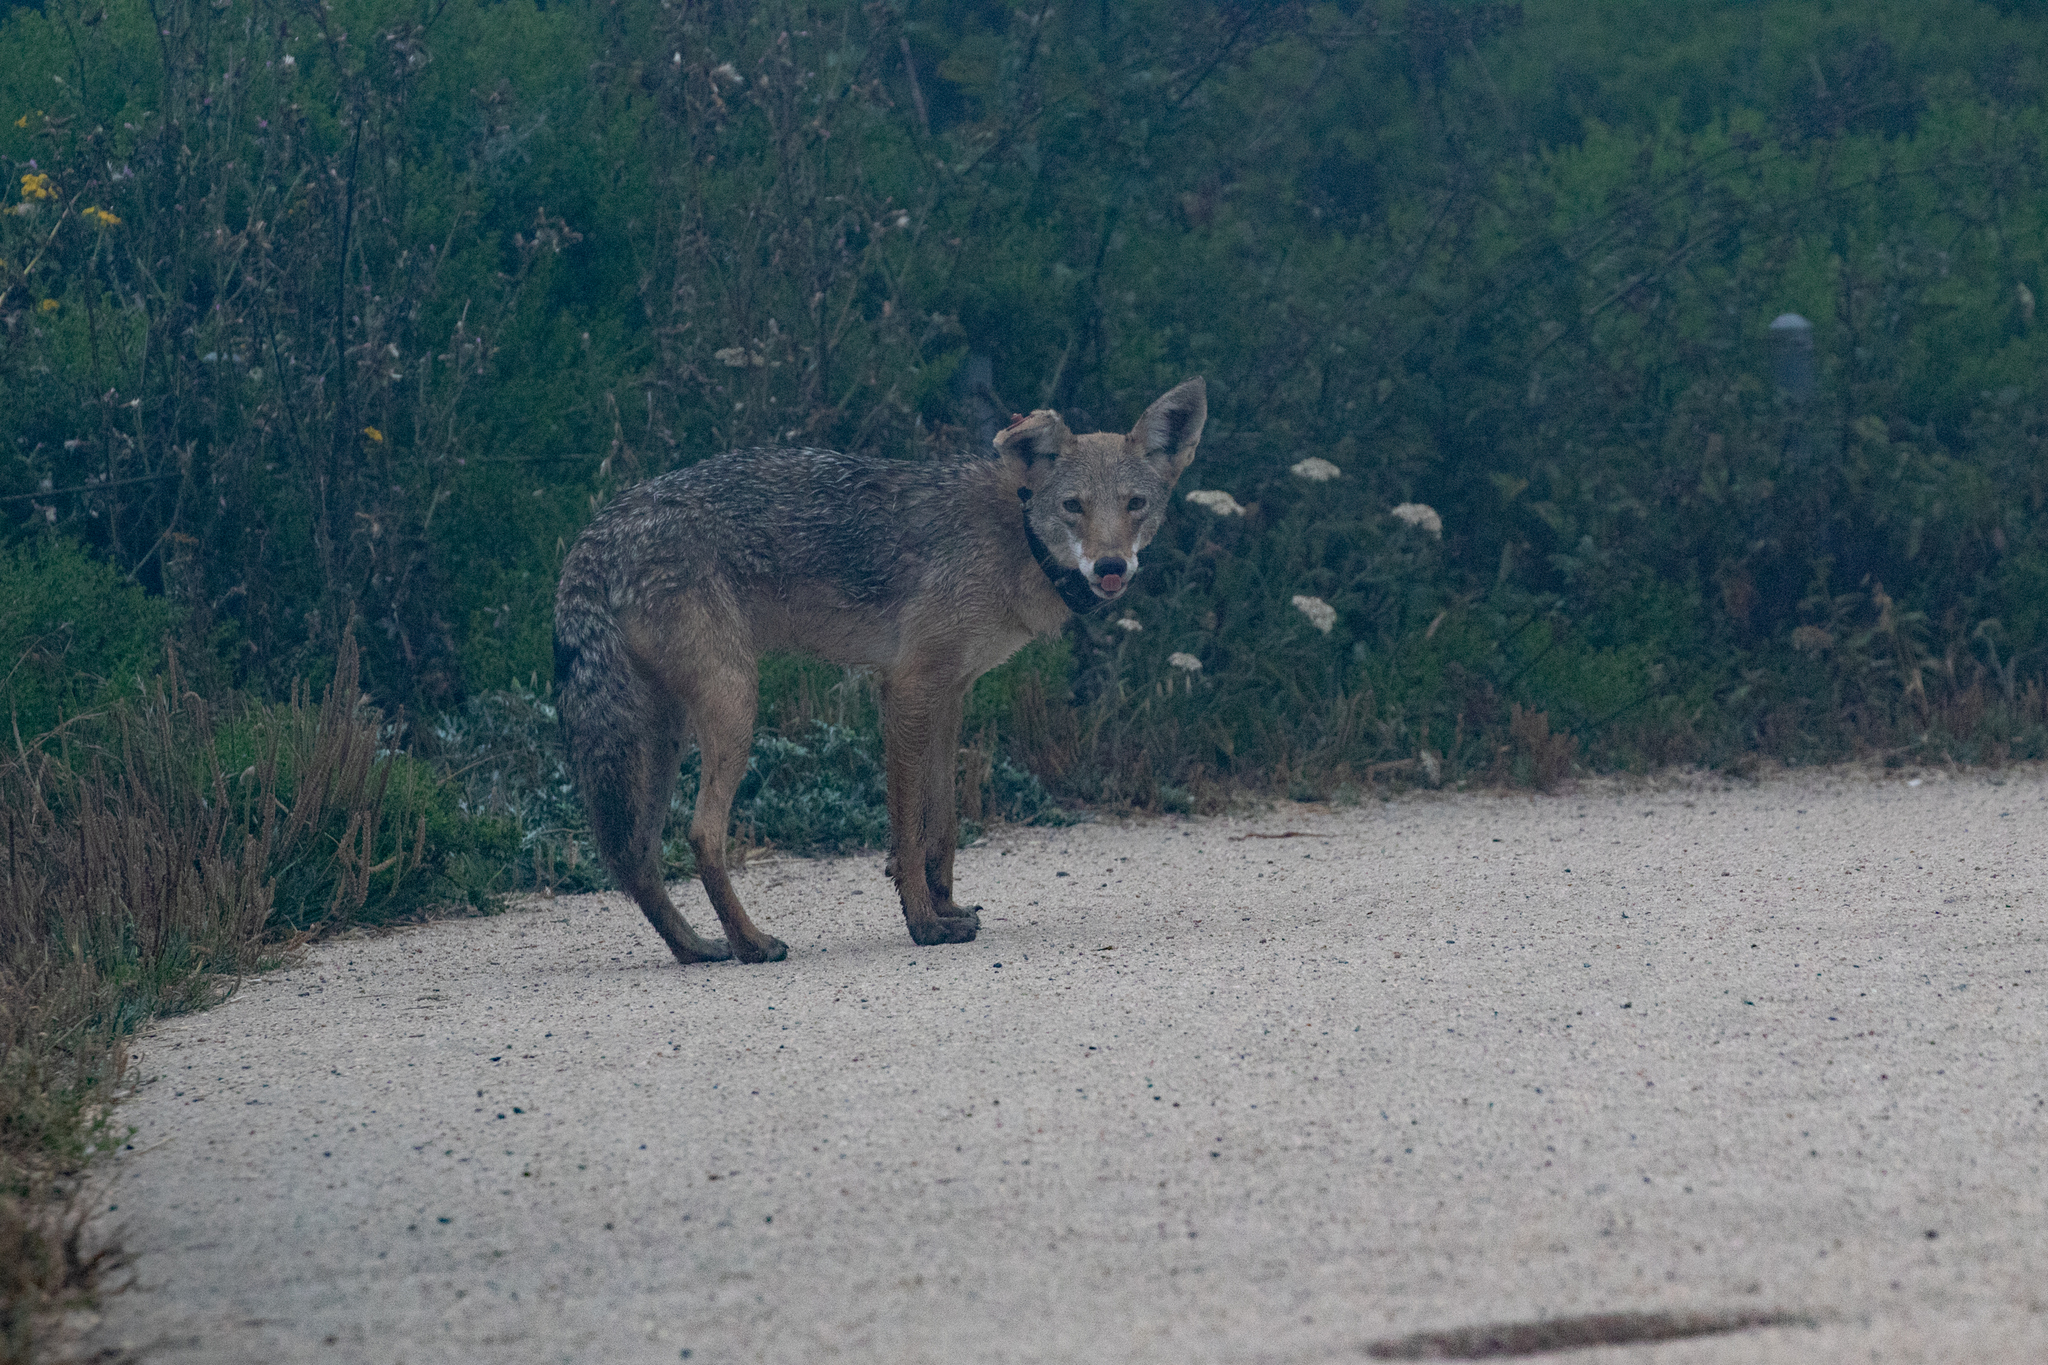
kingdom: Animalia
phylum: Chordata
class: Mammalia
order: Carnivora
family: Canidae
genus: Canis
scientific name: Canis latrans
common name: Coyote
